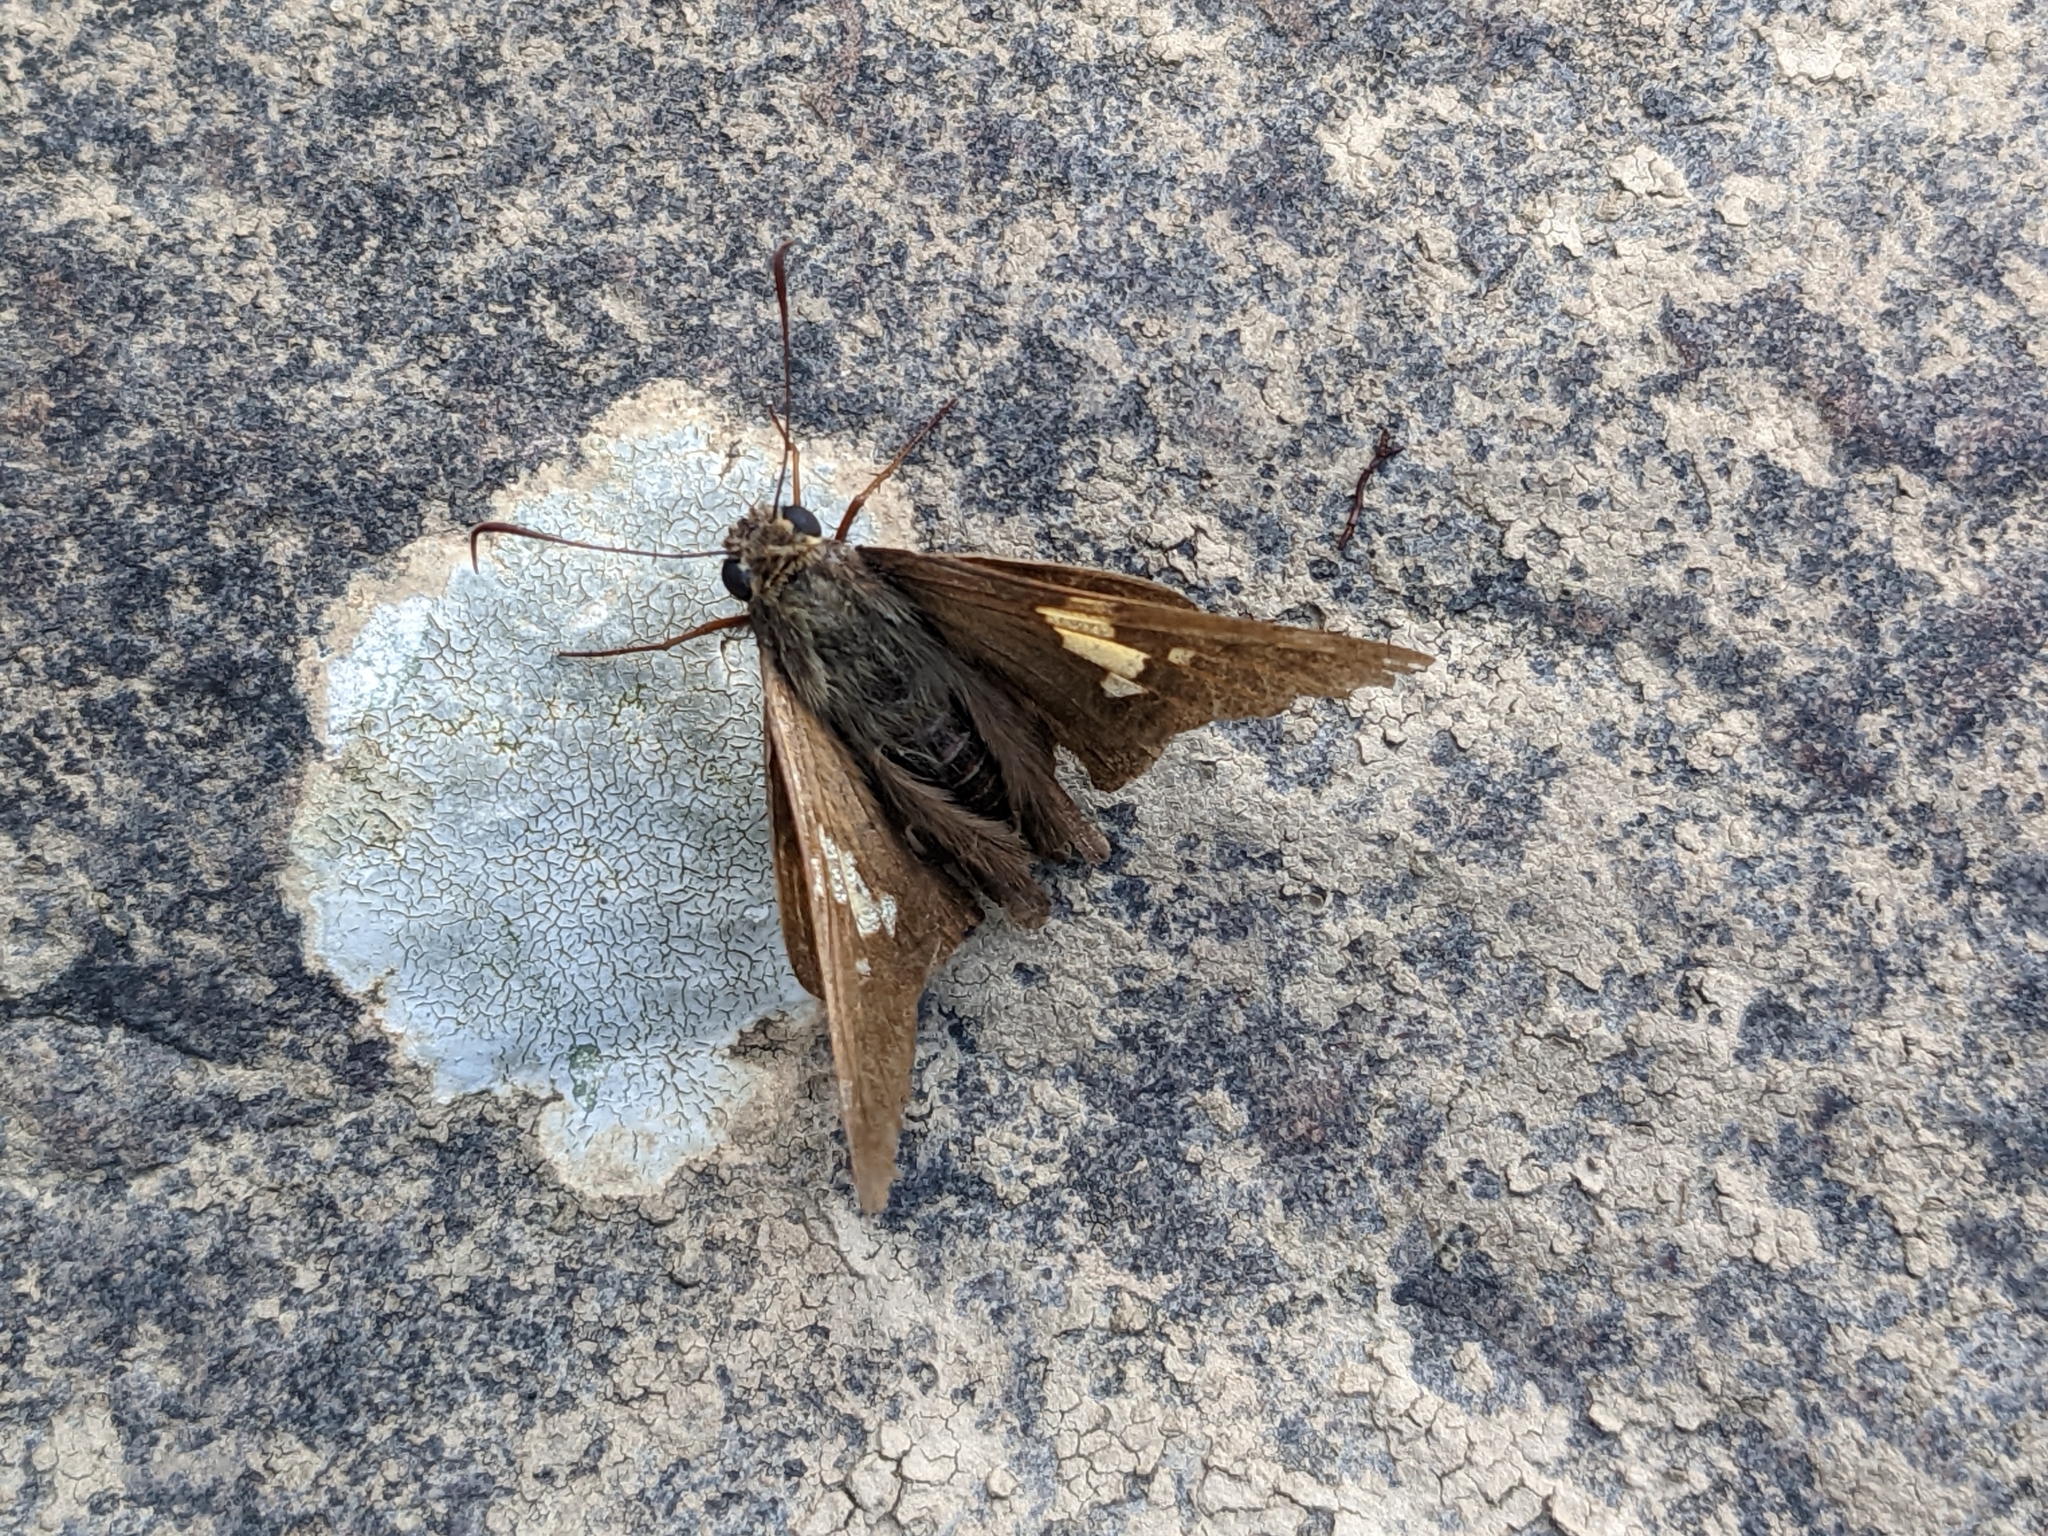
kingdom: Animalia
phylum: Arthropoda
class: Insecta
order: Lepidoptera
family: Hesperiidae
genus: Epargyreus
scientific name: Epargyreus clarus
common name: Silver-spotted skipper
